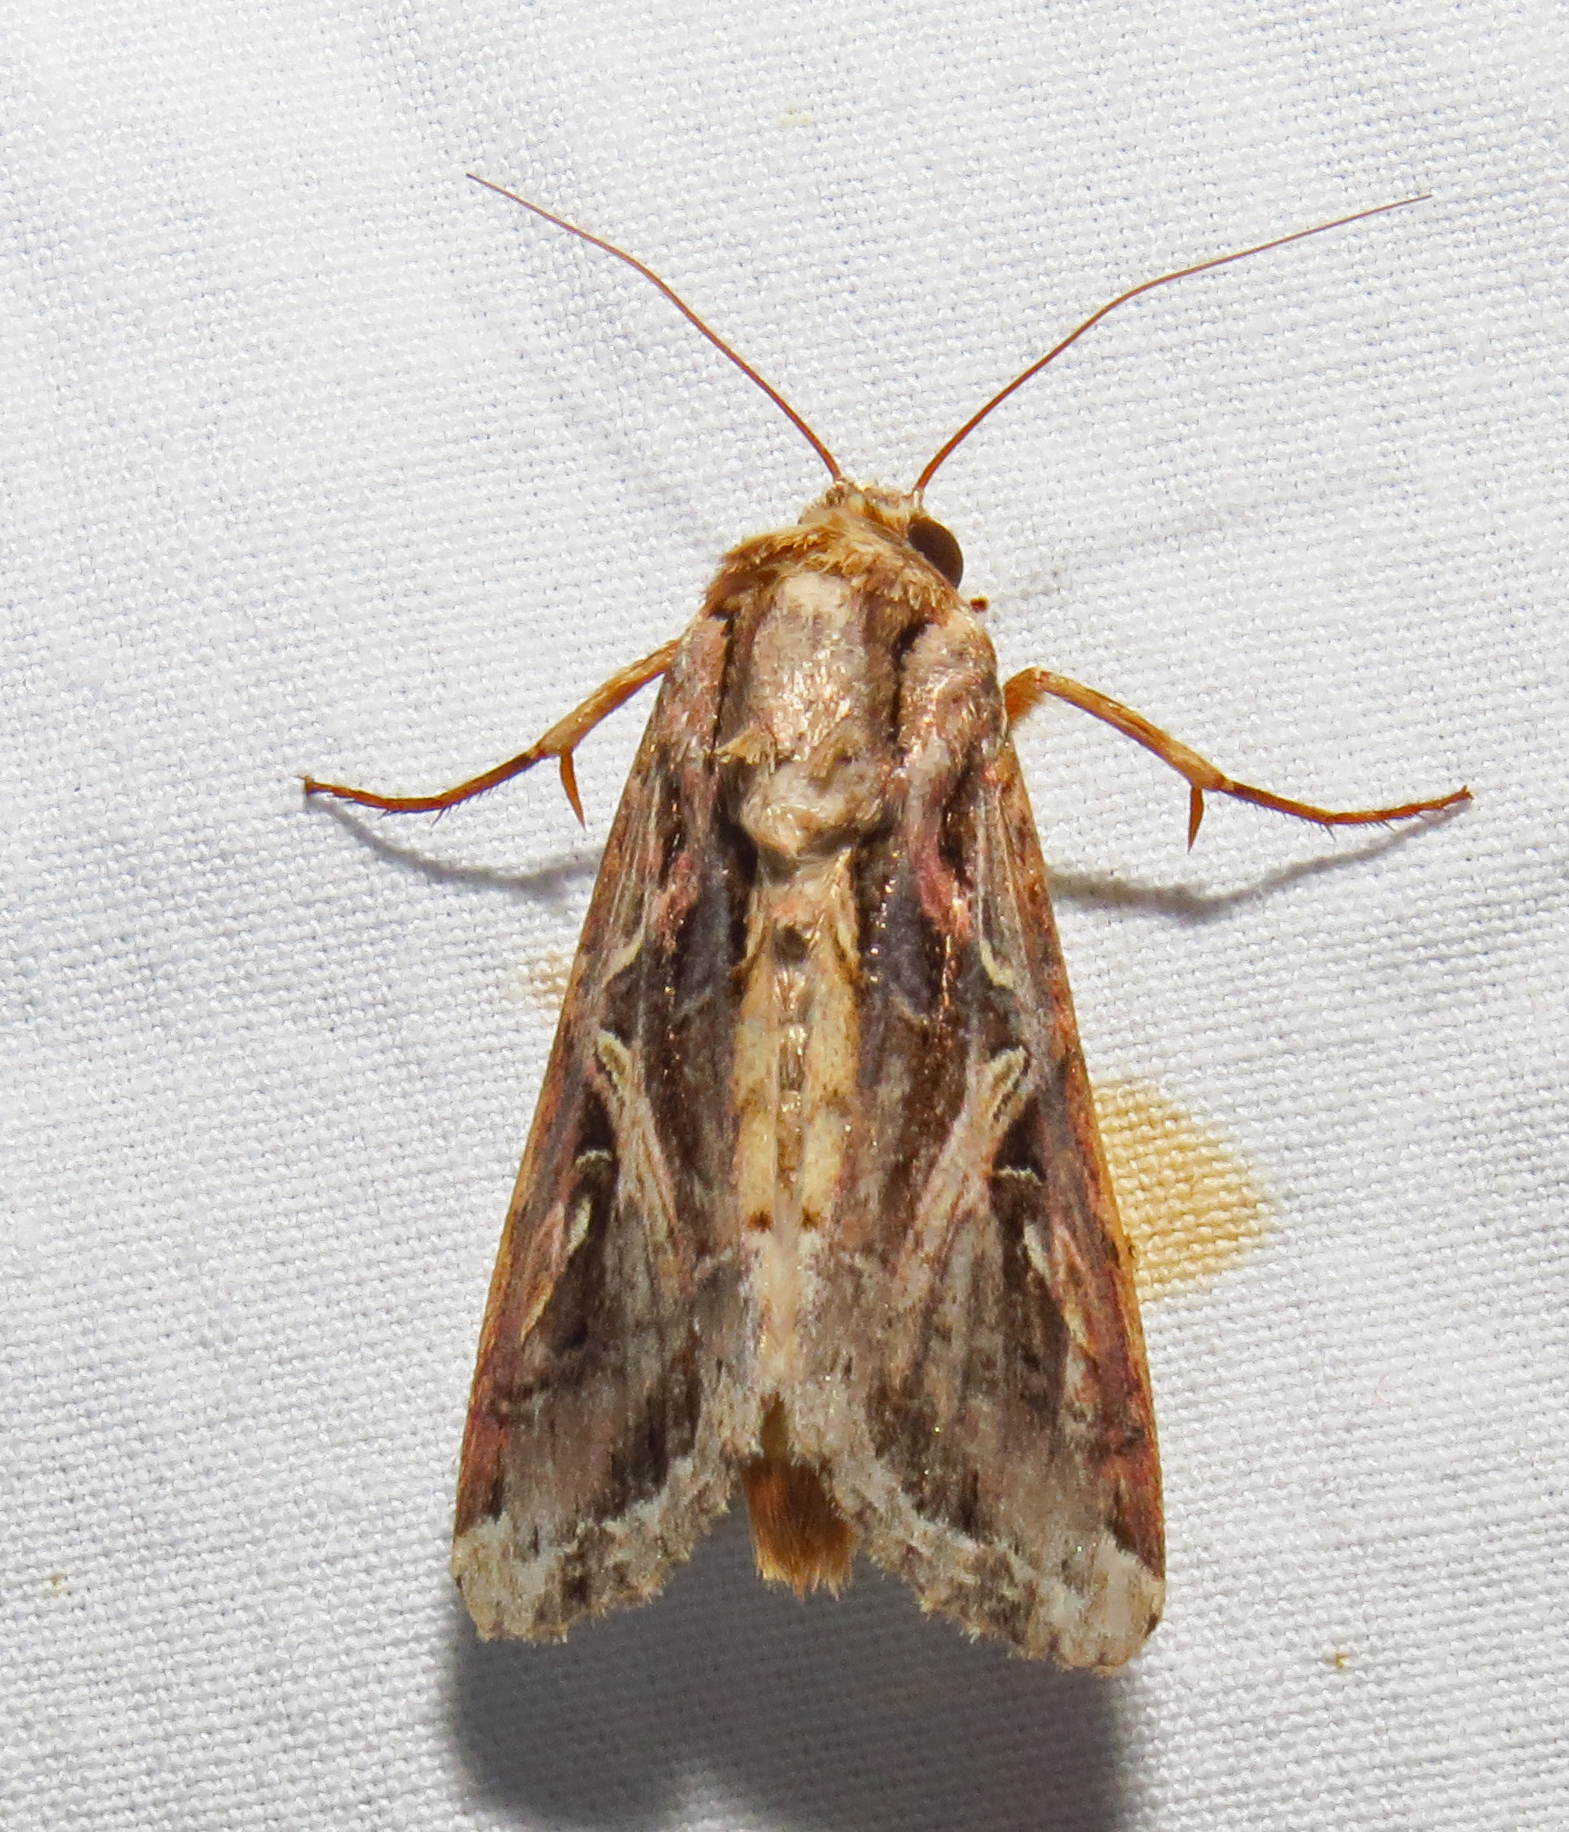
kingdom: Animalia
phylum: Arthropoda
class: Insecta
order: Lepidoptera
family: Noctuidae
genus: Spodoptera
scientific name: Spodoptera dolichos
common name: Sweetpotato armyworm
